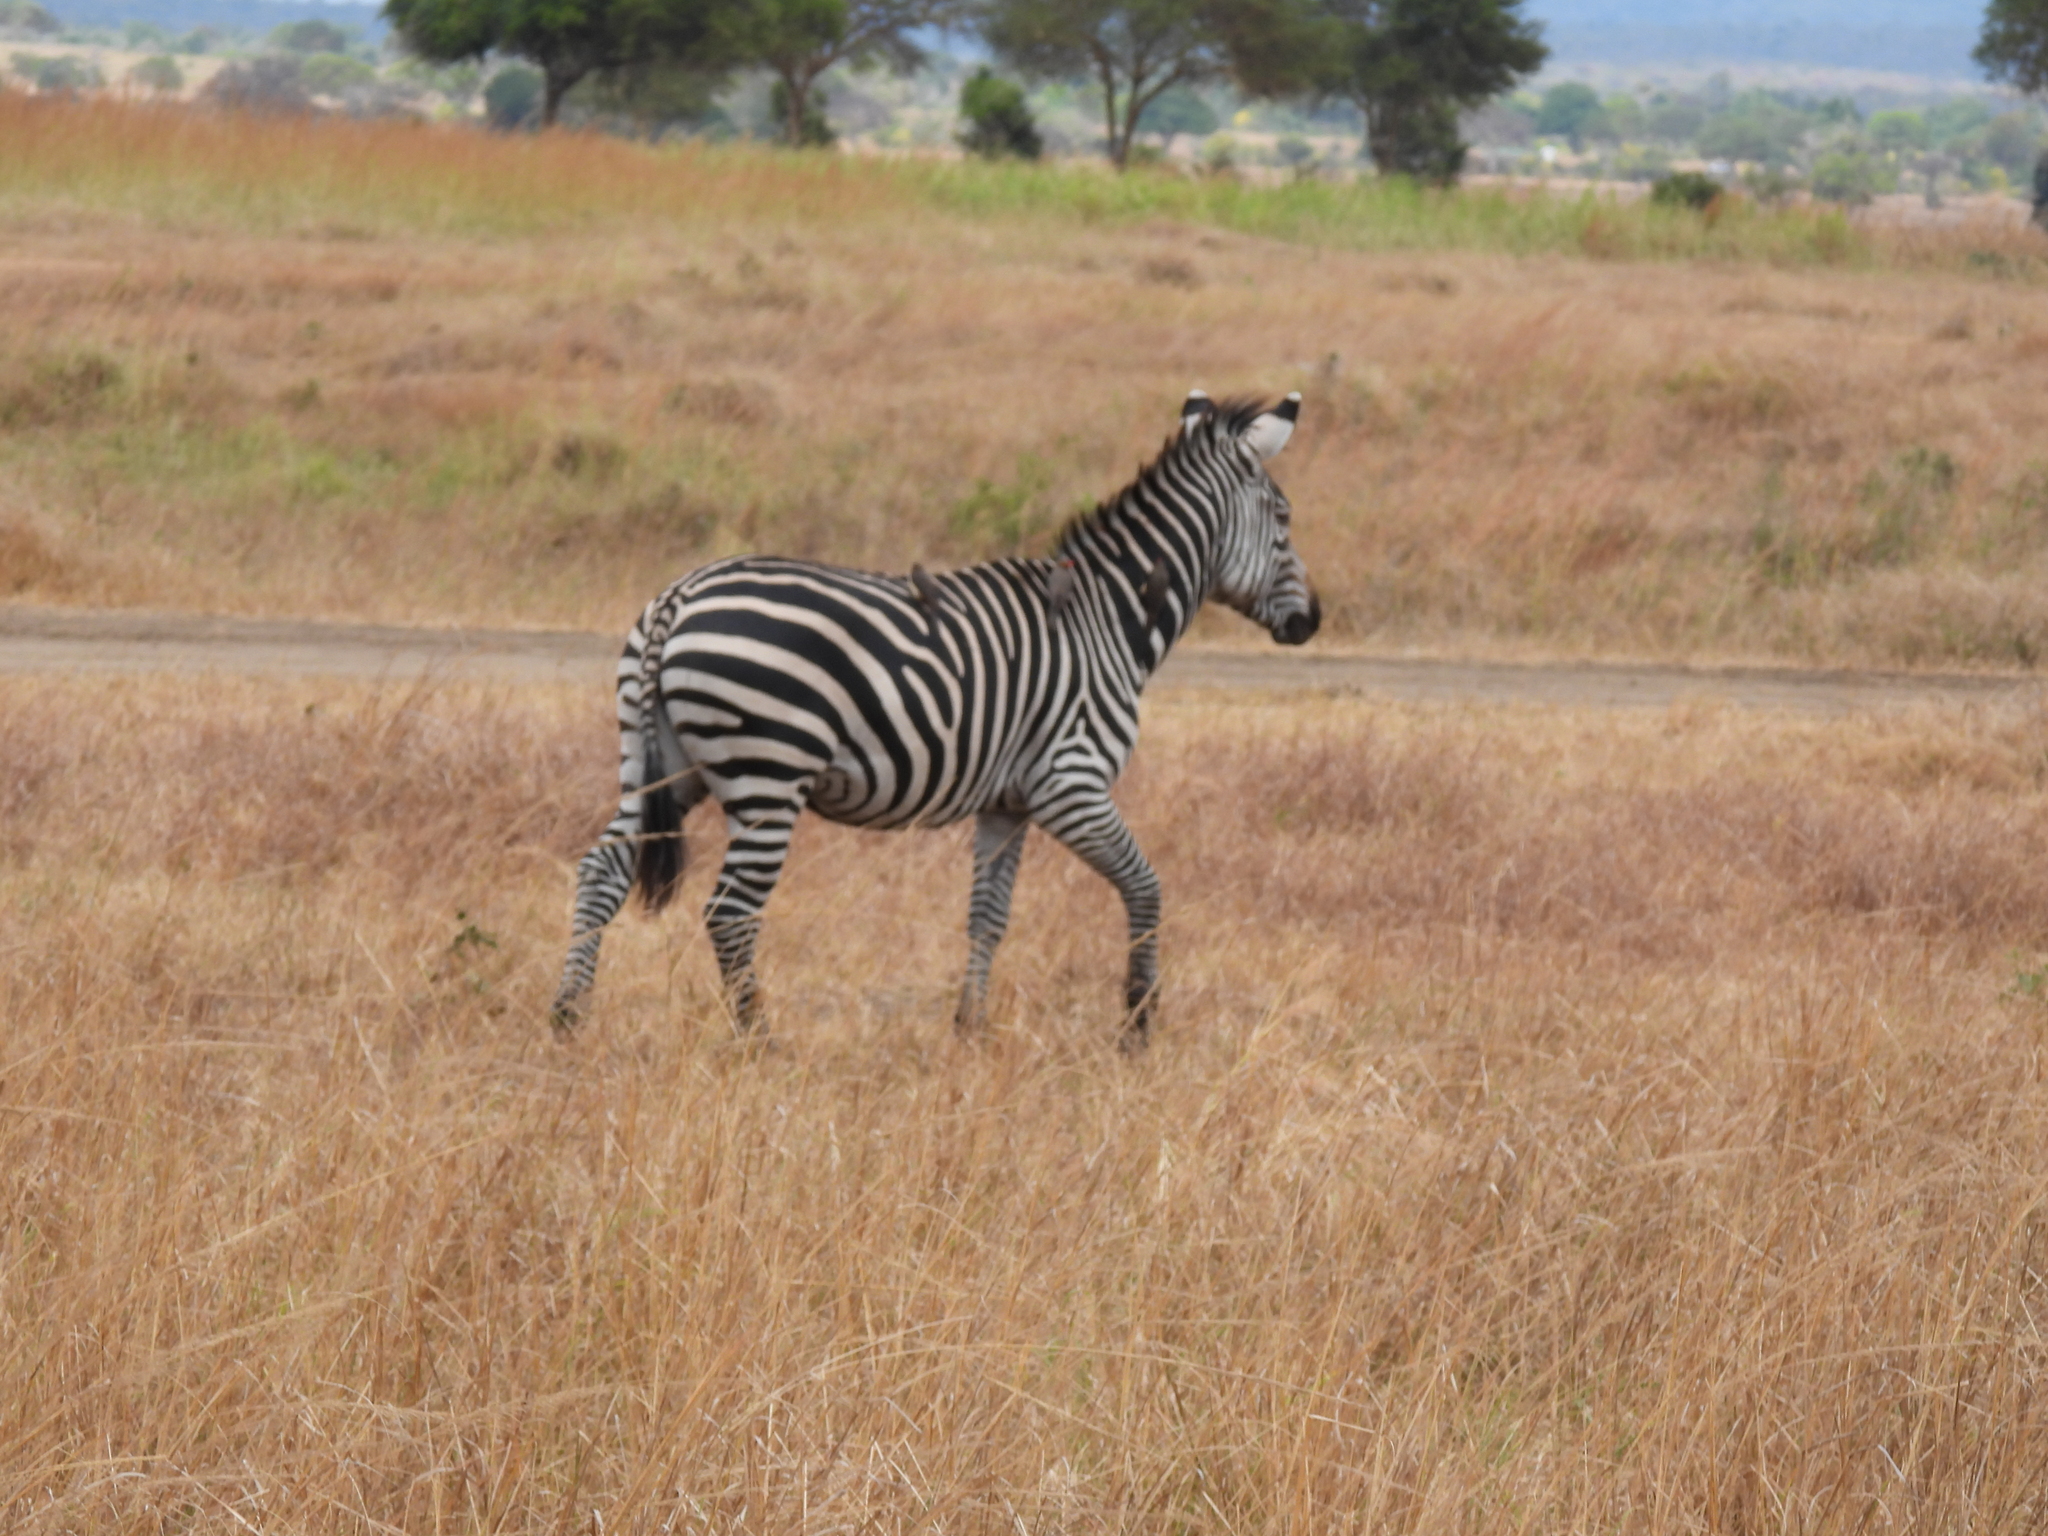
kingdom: Animalia
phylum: Chordata
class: Mammalia
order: Perissodactyla
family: Equidae
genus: Equus
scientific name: Equus quagga
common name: Plains zebra
